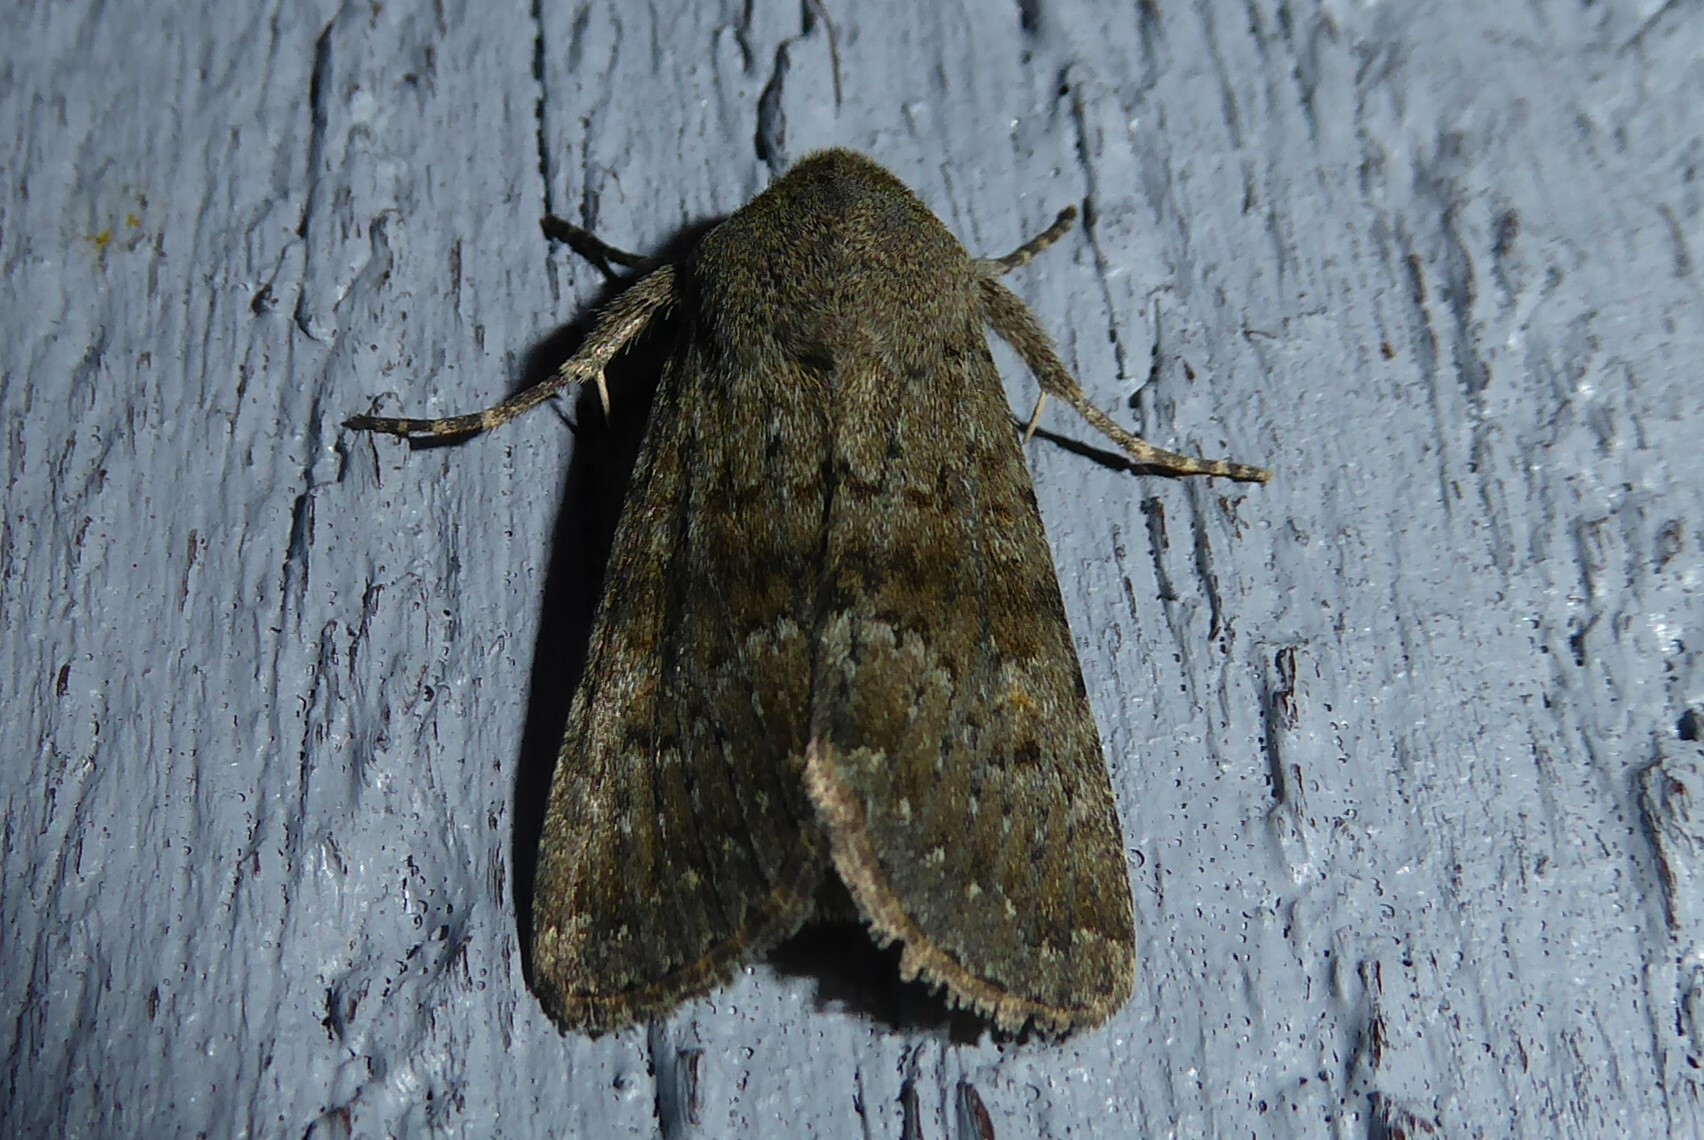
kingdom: Animalia
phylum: Arthropoda
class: Insecta
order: Lepidoptera
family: Noctuidae
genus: Ichneutica
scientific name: Ichneutica moderata
